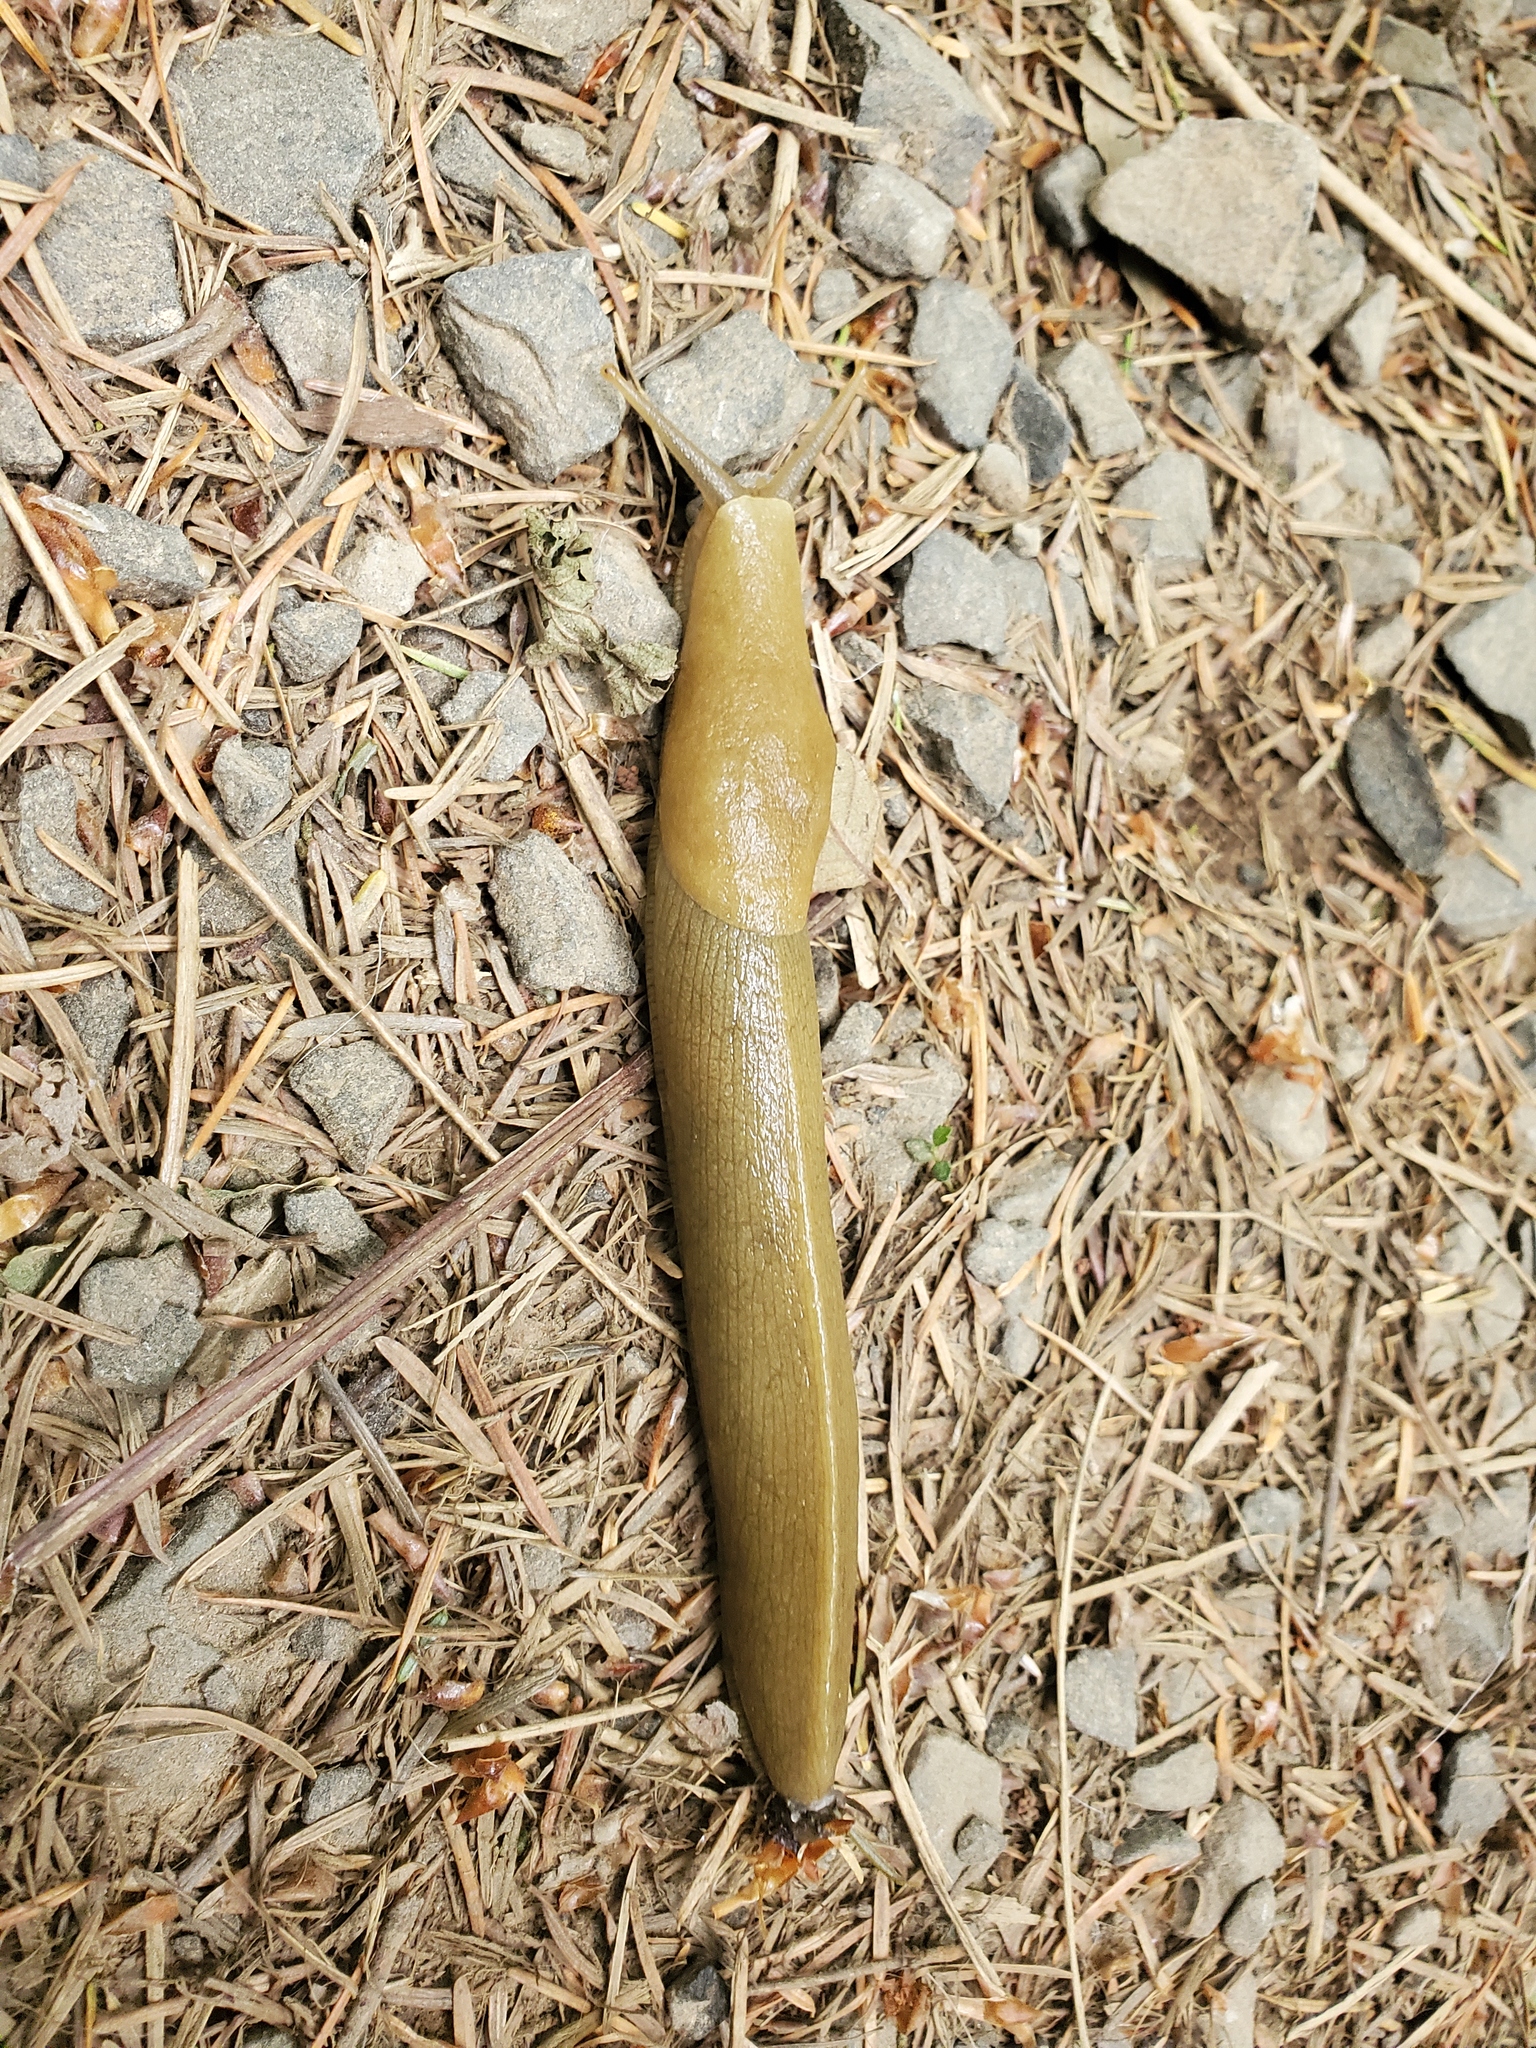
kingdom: Animalia
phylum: Mollusca
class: Gastropoda
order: Stylommatophora
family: Ariolimacidae
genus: Ariolimax
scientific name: Ariolimax columbianus
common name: Pacific banana slug
